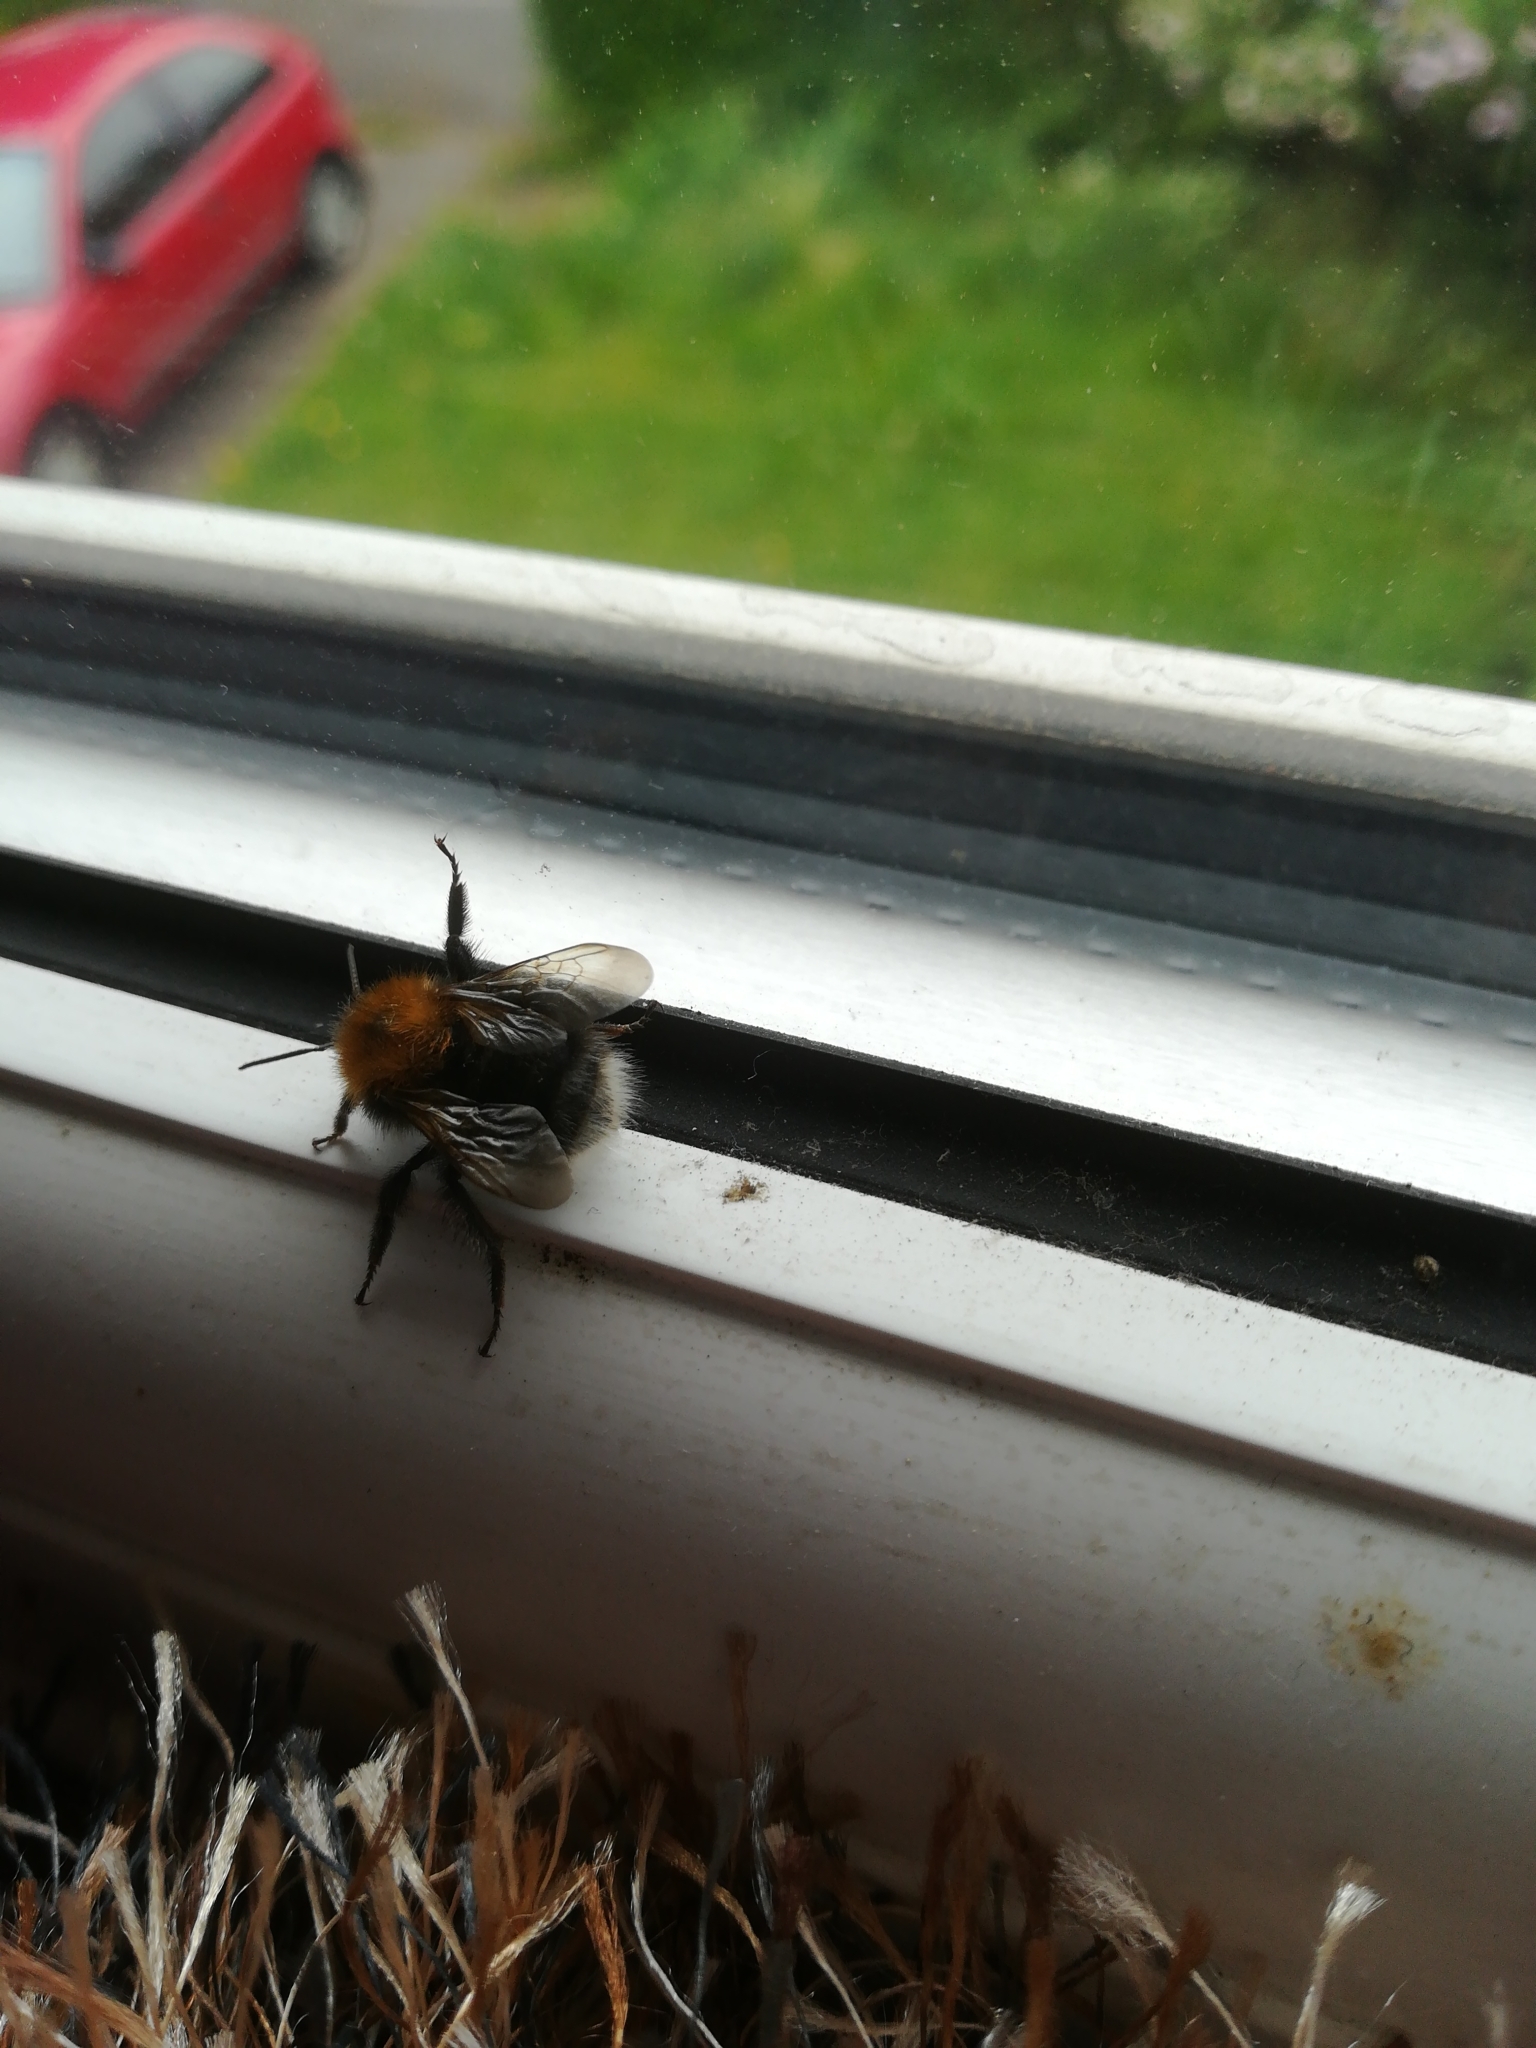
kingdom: Animalia
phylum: Arthropoda
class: Insecta
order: Hymenoptera
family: Apidae
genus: Bombus
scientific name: Bombus hypnorum
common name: New garden bumblebee
